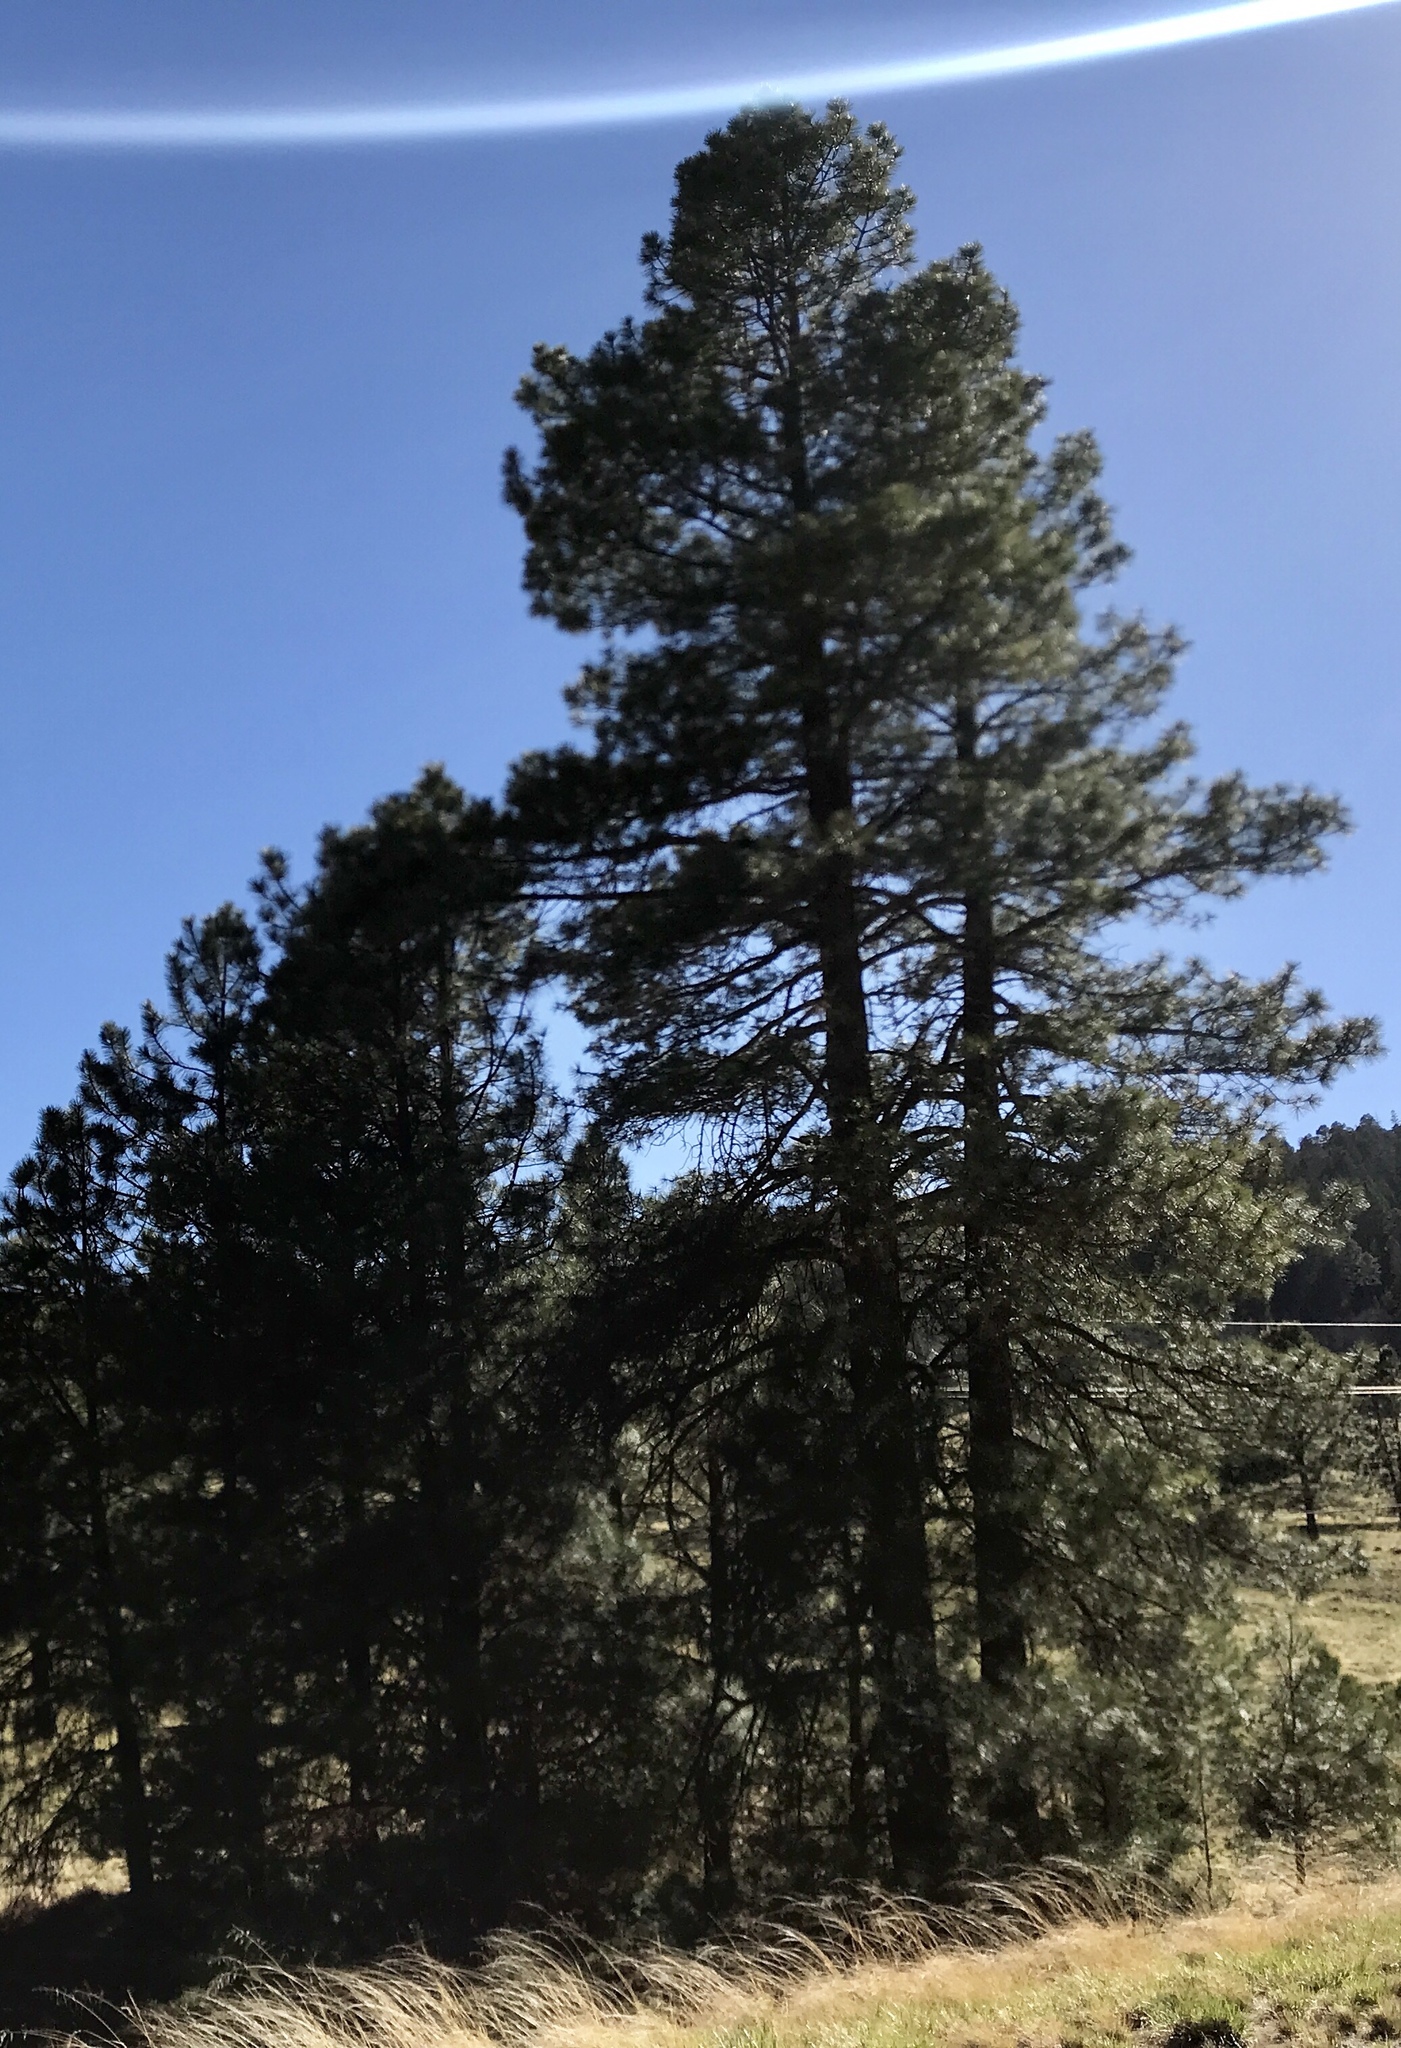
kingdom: Plantae
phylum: Tracheophyta
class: Pinopsida
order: Pinales
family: Pinaceae
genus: Pinus
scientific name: Pinus ponderosa
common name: Western yellow-pine
